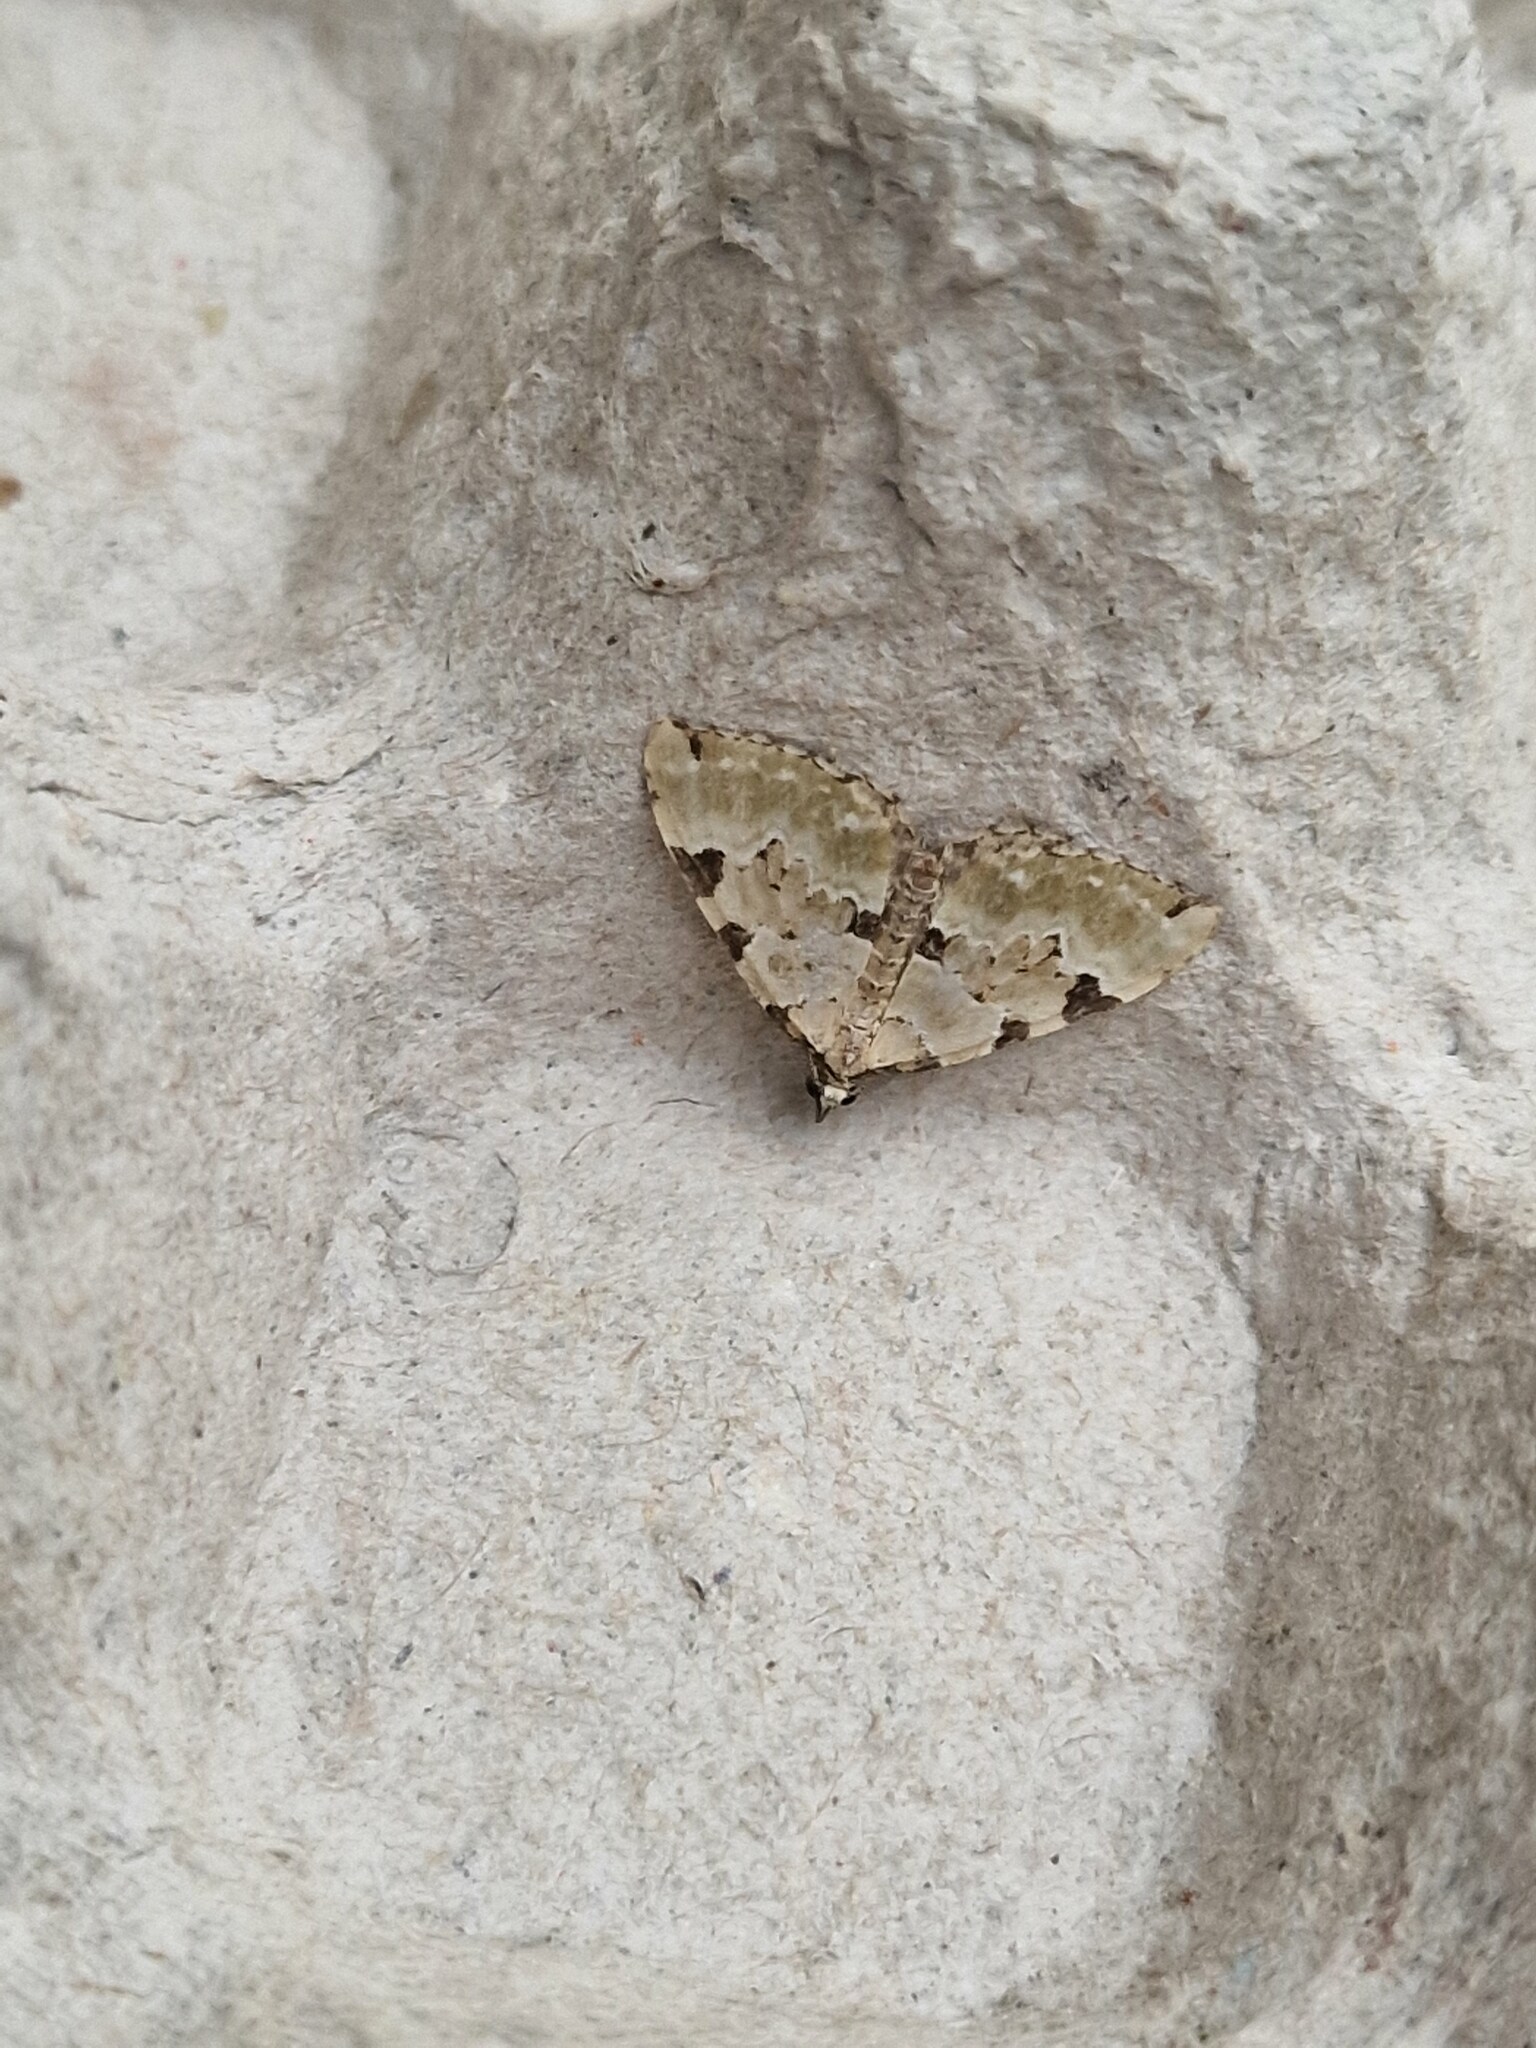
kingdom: Animalia
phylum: Arthropoda
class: Insecta
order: Lepidoptera
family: Geometridae
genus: Colostygia
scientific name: Colostygia pectinataria
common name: Green carpet
